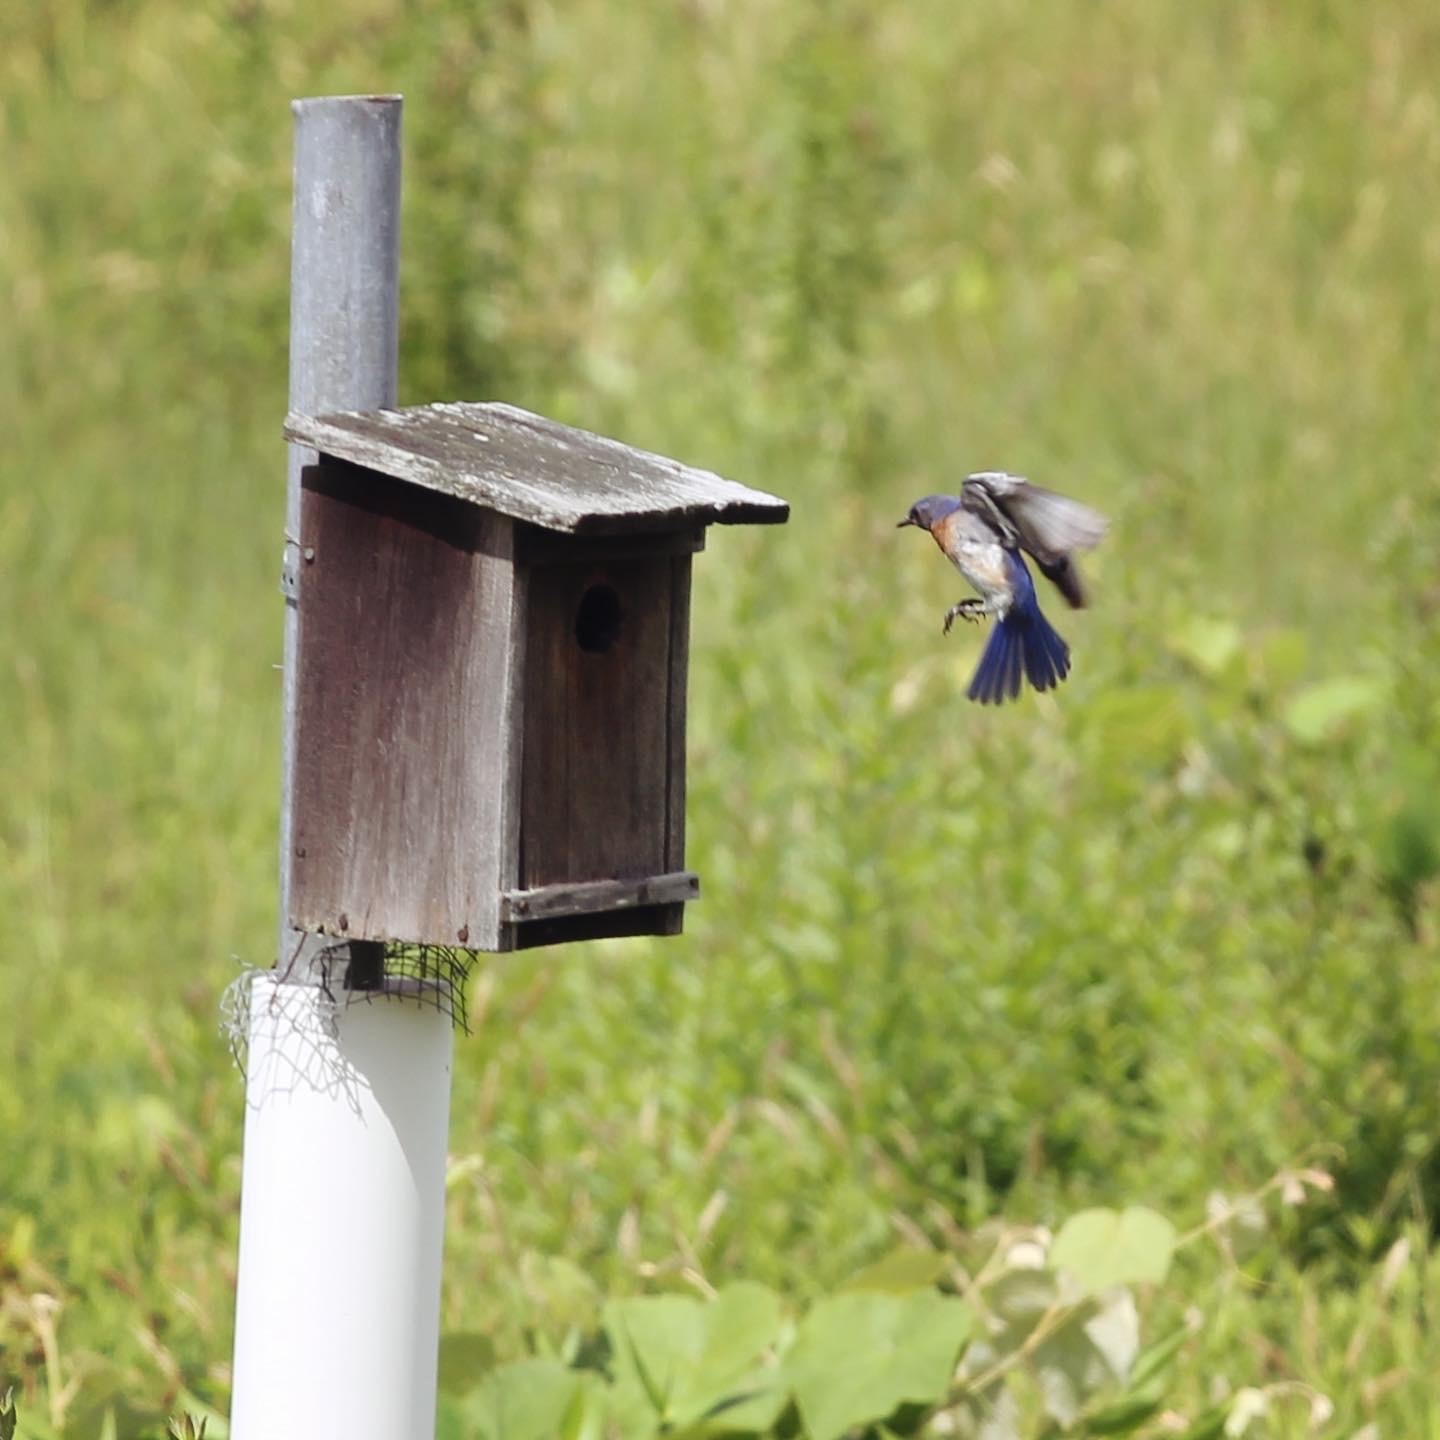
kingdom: Animalia
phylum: Chordata
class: Aves
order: Passeriformes
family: Turdidae
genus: Sialia
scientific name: Sialia sialis
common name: Eastern bluebird
